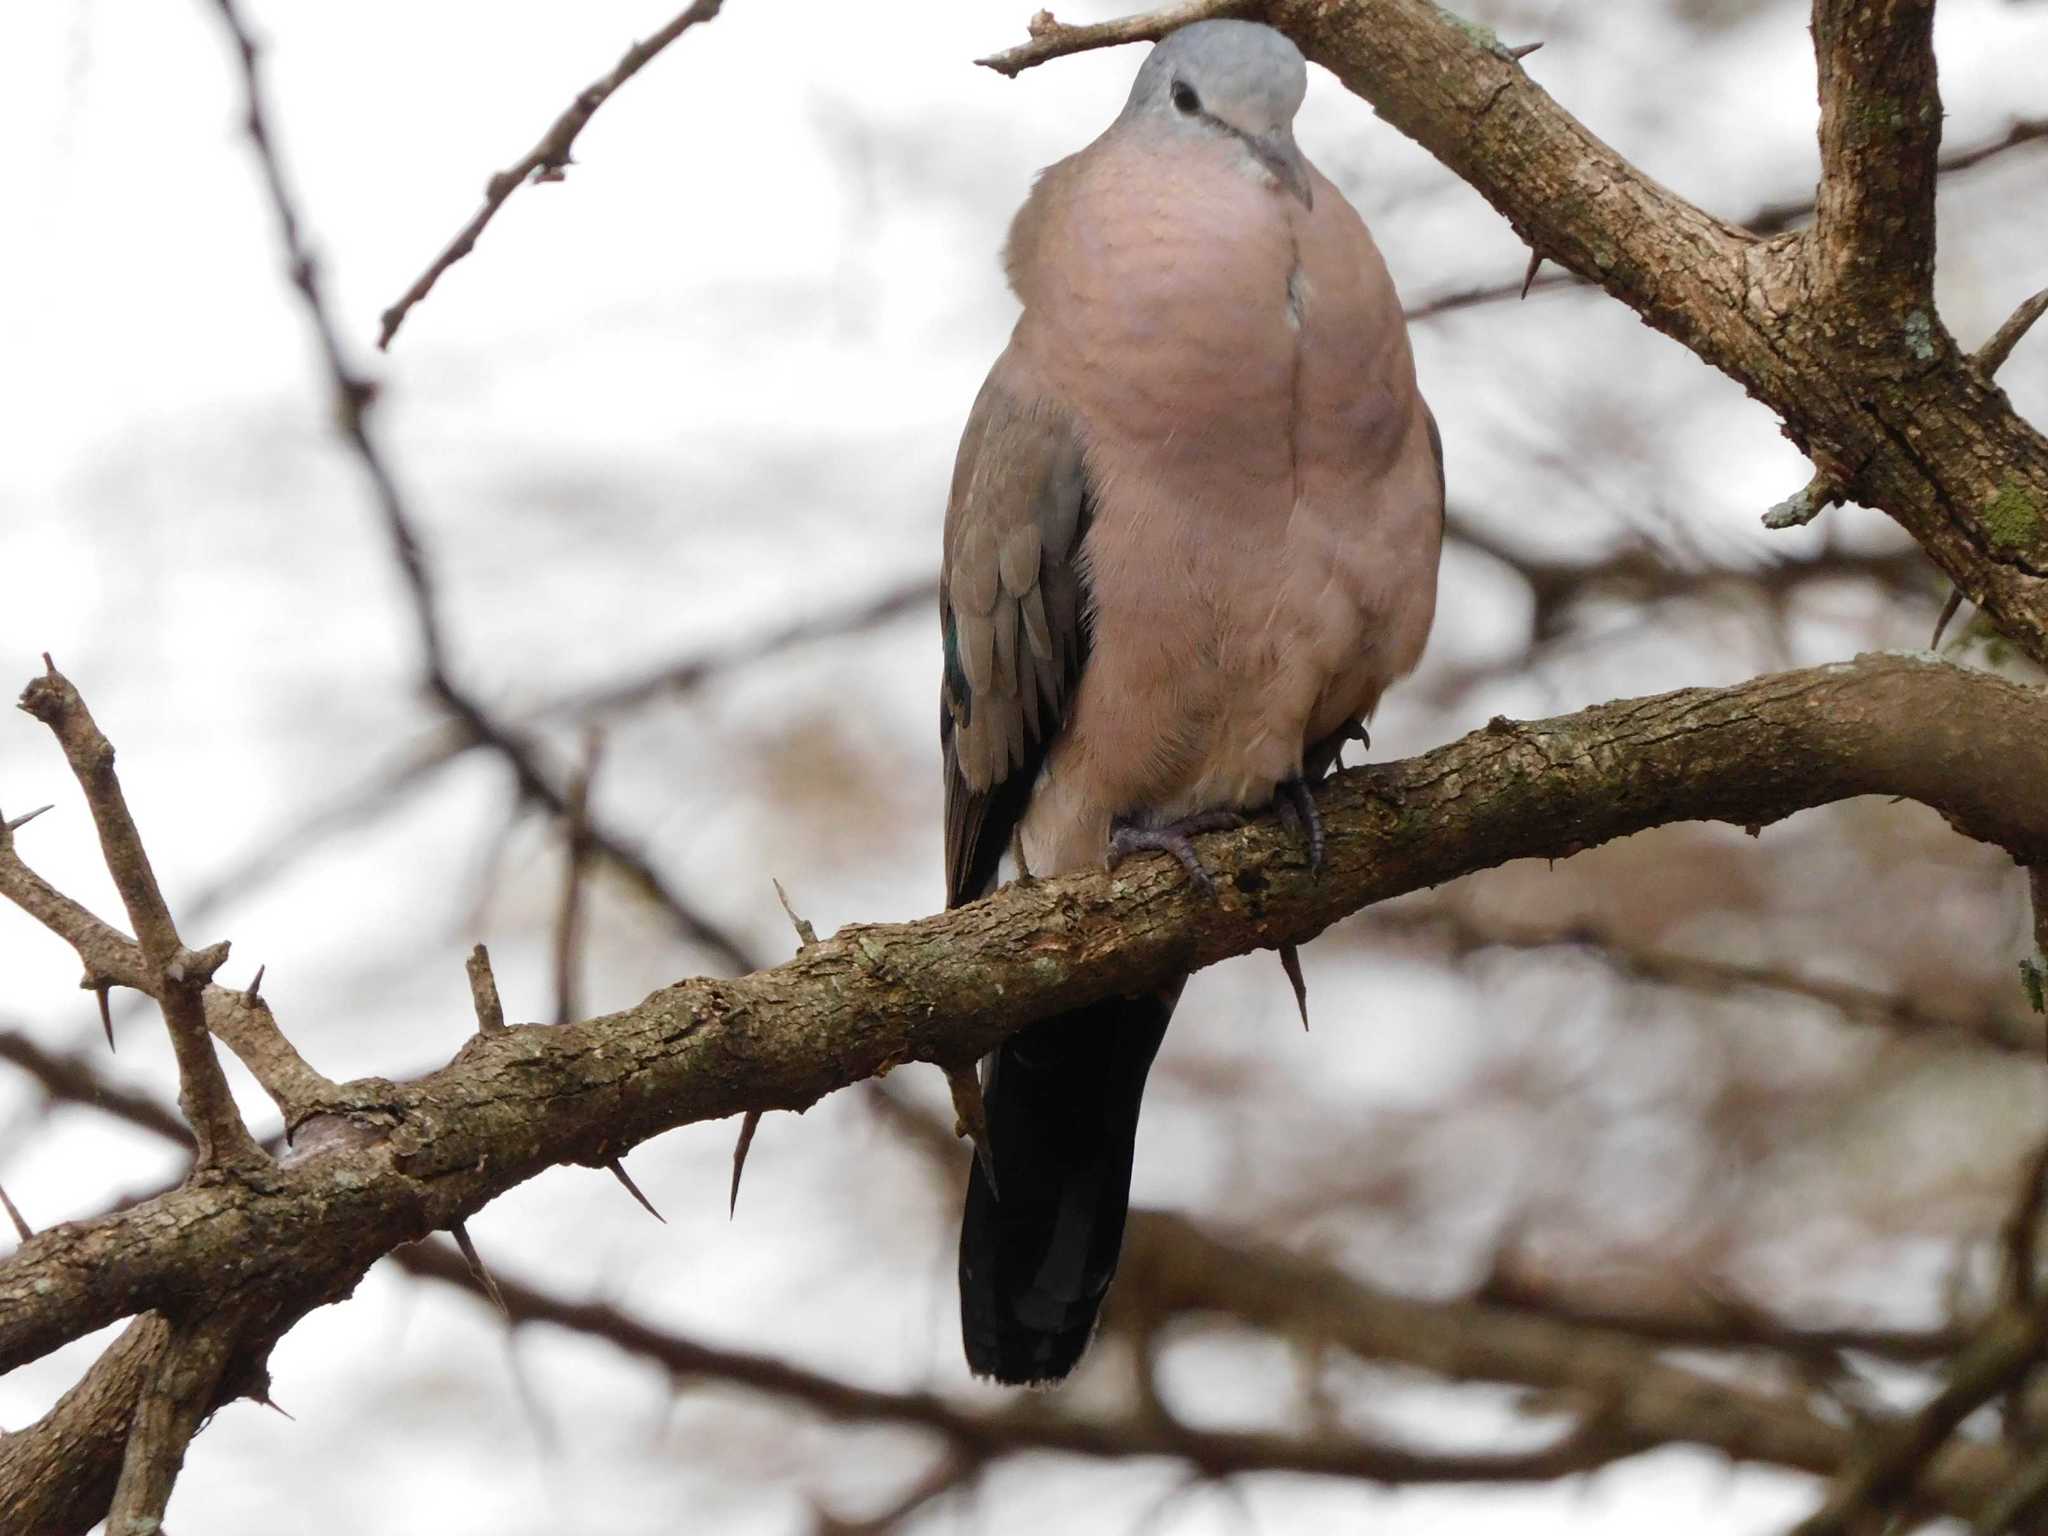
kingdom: Animalia
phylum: Chordata
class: Aves
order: Columbiformes
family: Columbidae
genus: Turtur
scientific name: Turtur chalcospilos
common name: Emerald-spotted wood dove
